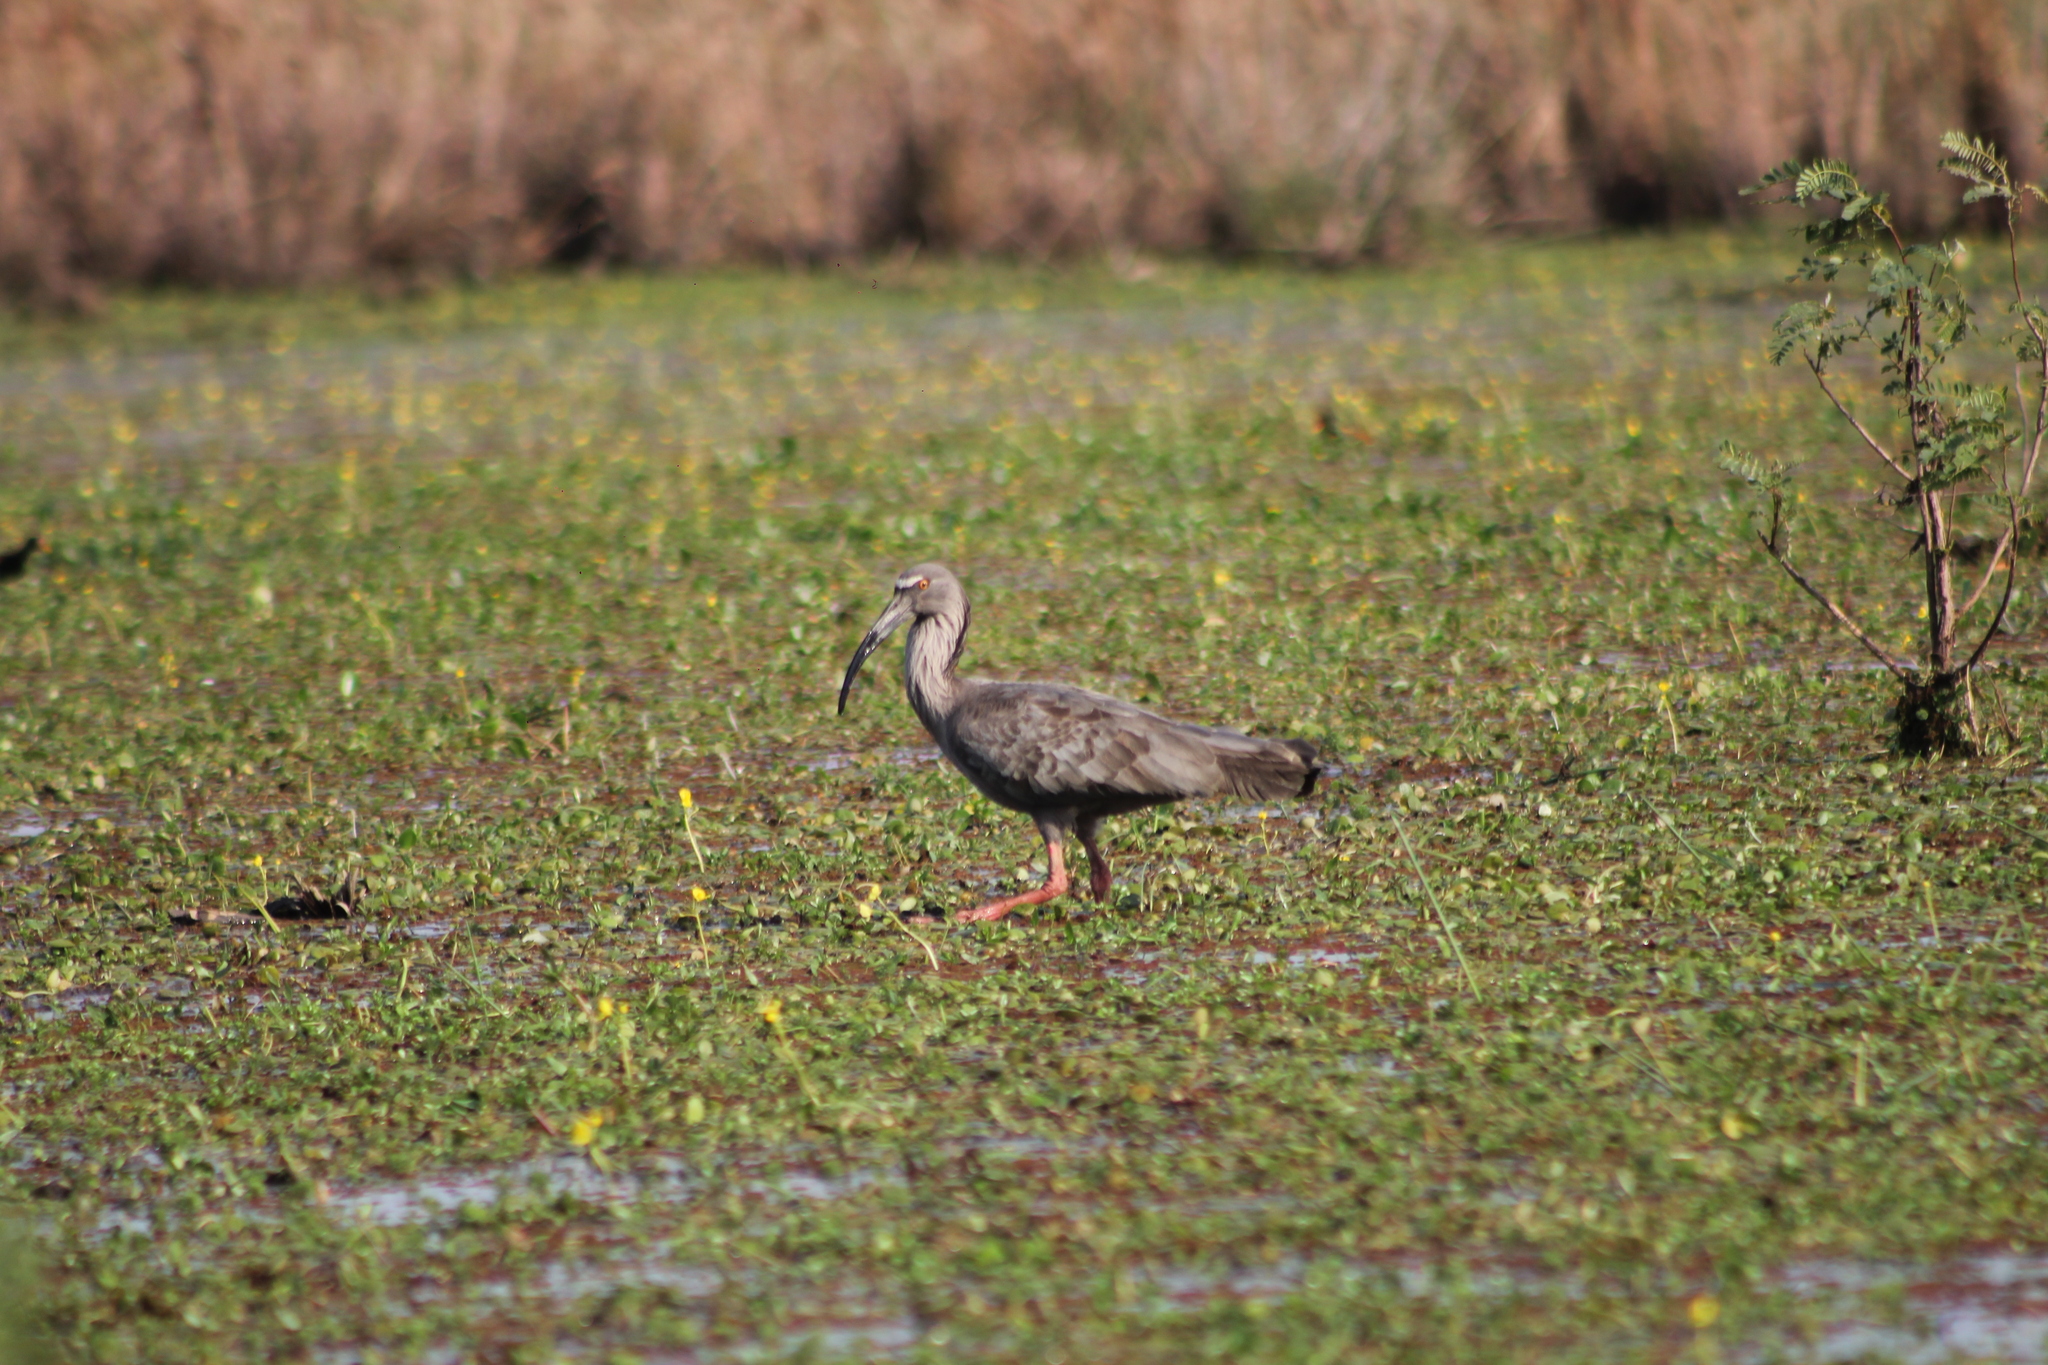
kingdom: Animalia
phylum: Chordata
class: Aves
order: Pelecaniformes
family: Threskiornithidae
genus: Theristicus
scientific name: Theristicus caerulescens
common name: Plumbeous ibis
